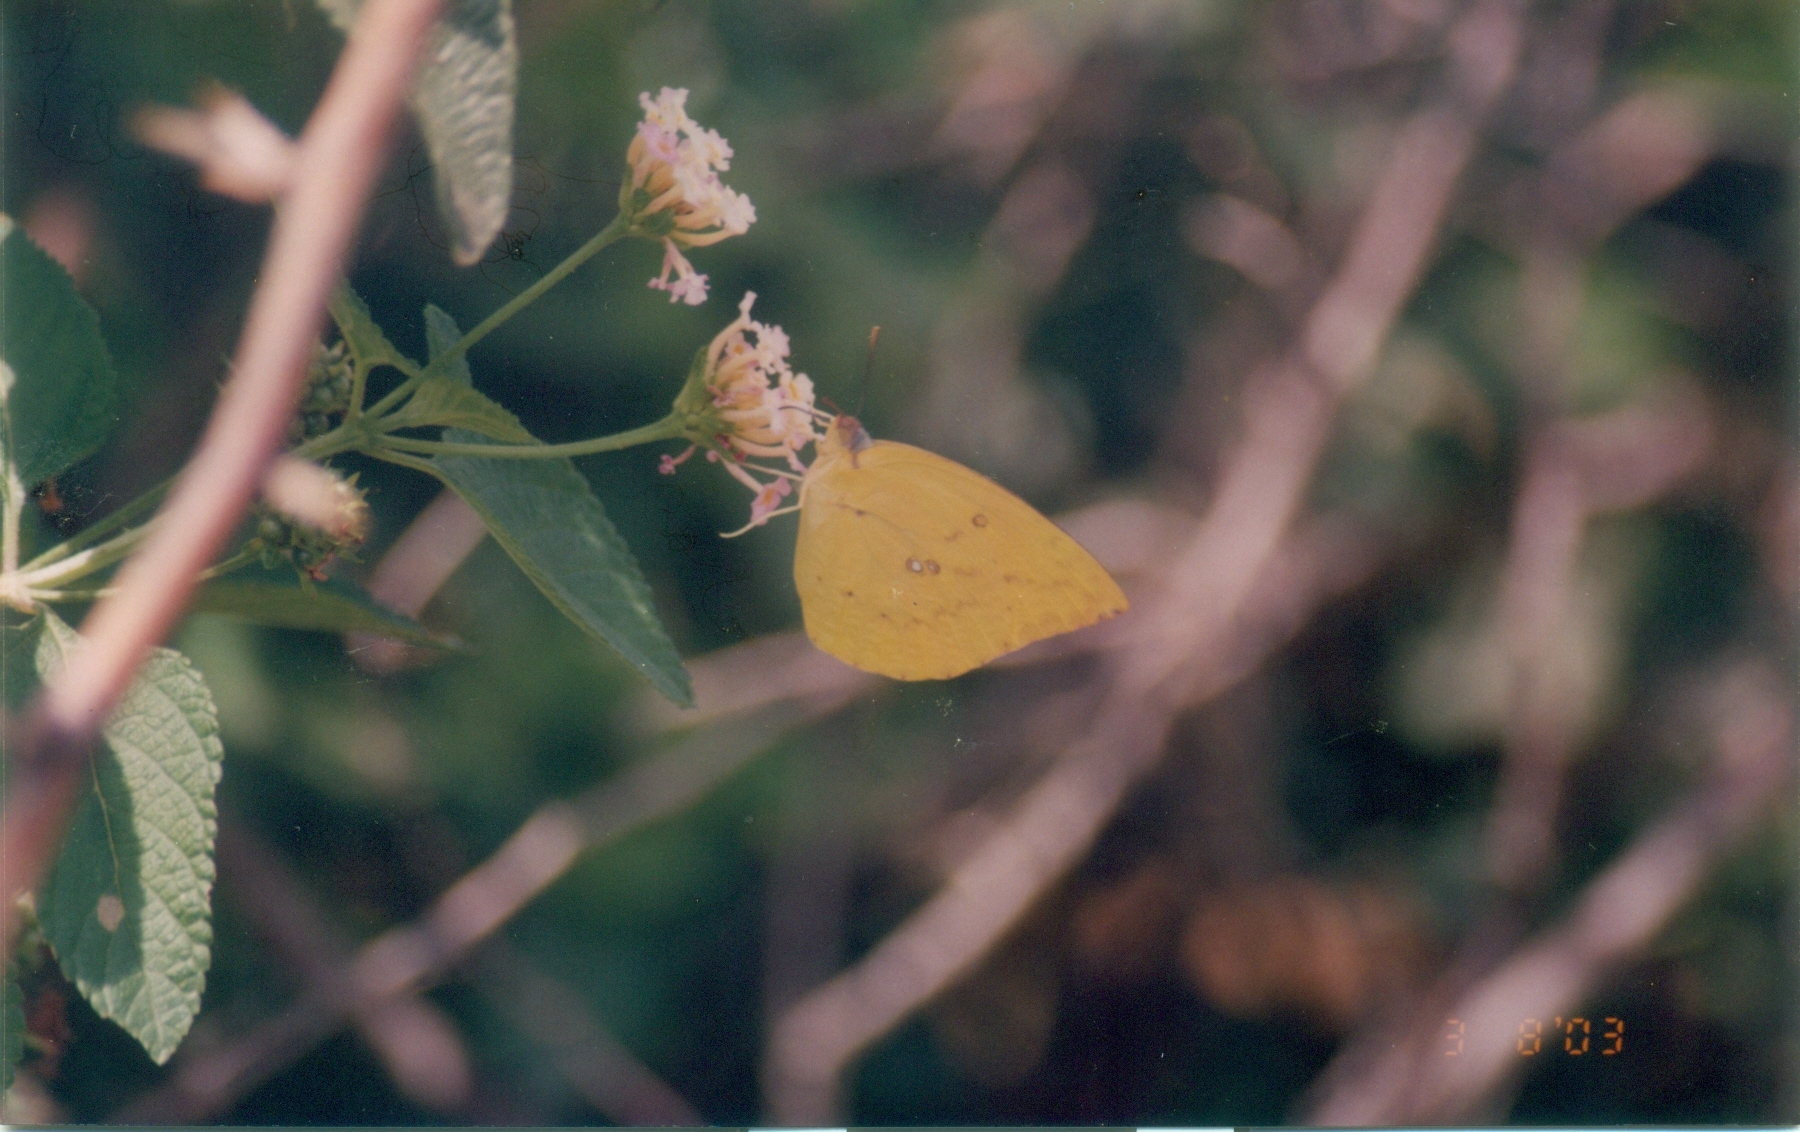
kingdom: Animalia
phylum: Arthropoda
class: Insecta
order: Lepidoptera
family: Pieridae
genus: Catopsilia
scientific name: Catopsilia pomona
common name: Common emigrant
